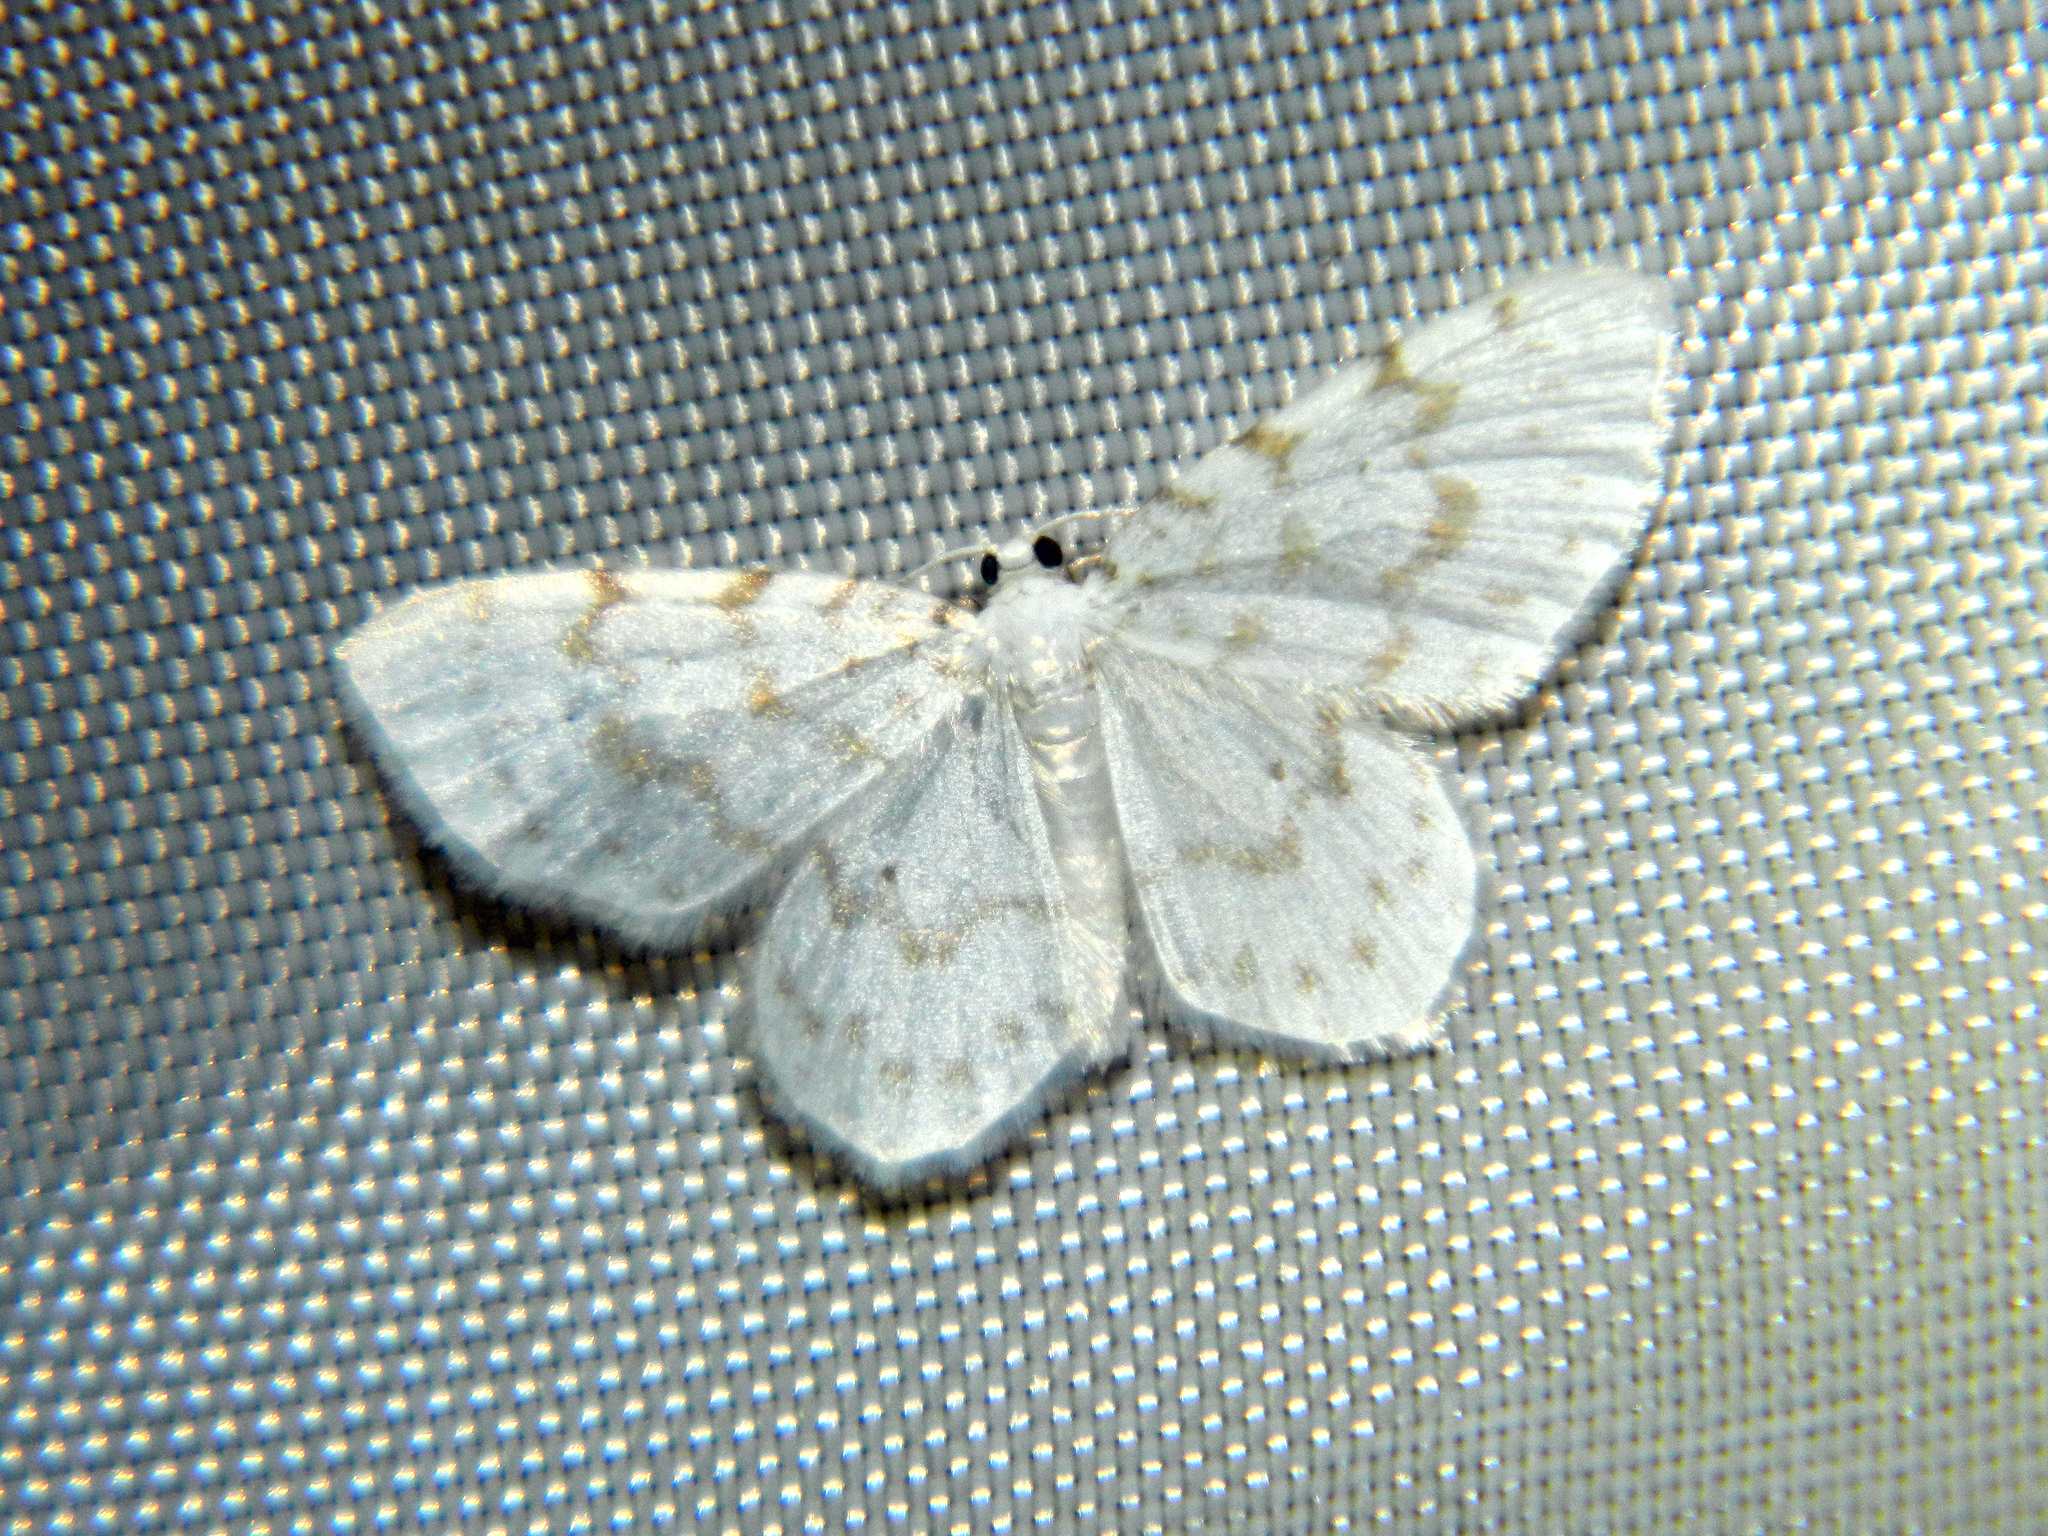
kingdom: Animalia
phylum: Arthropoda
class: Insecta
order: Lepidoptera
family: Geometridae
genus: Hydrelia
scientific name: Hydrelia albifera
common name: Fragile white carpet
